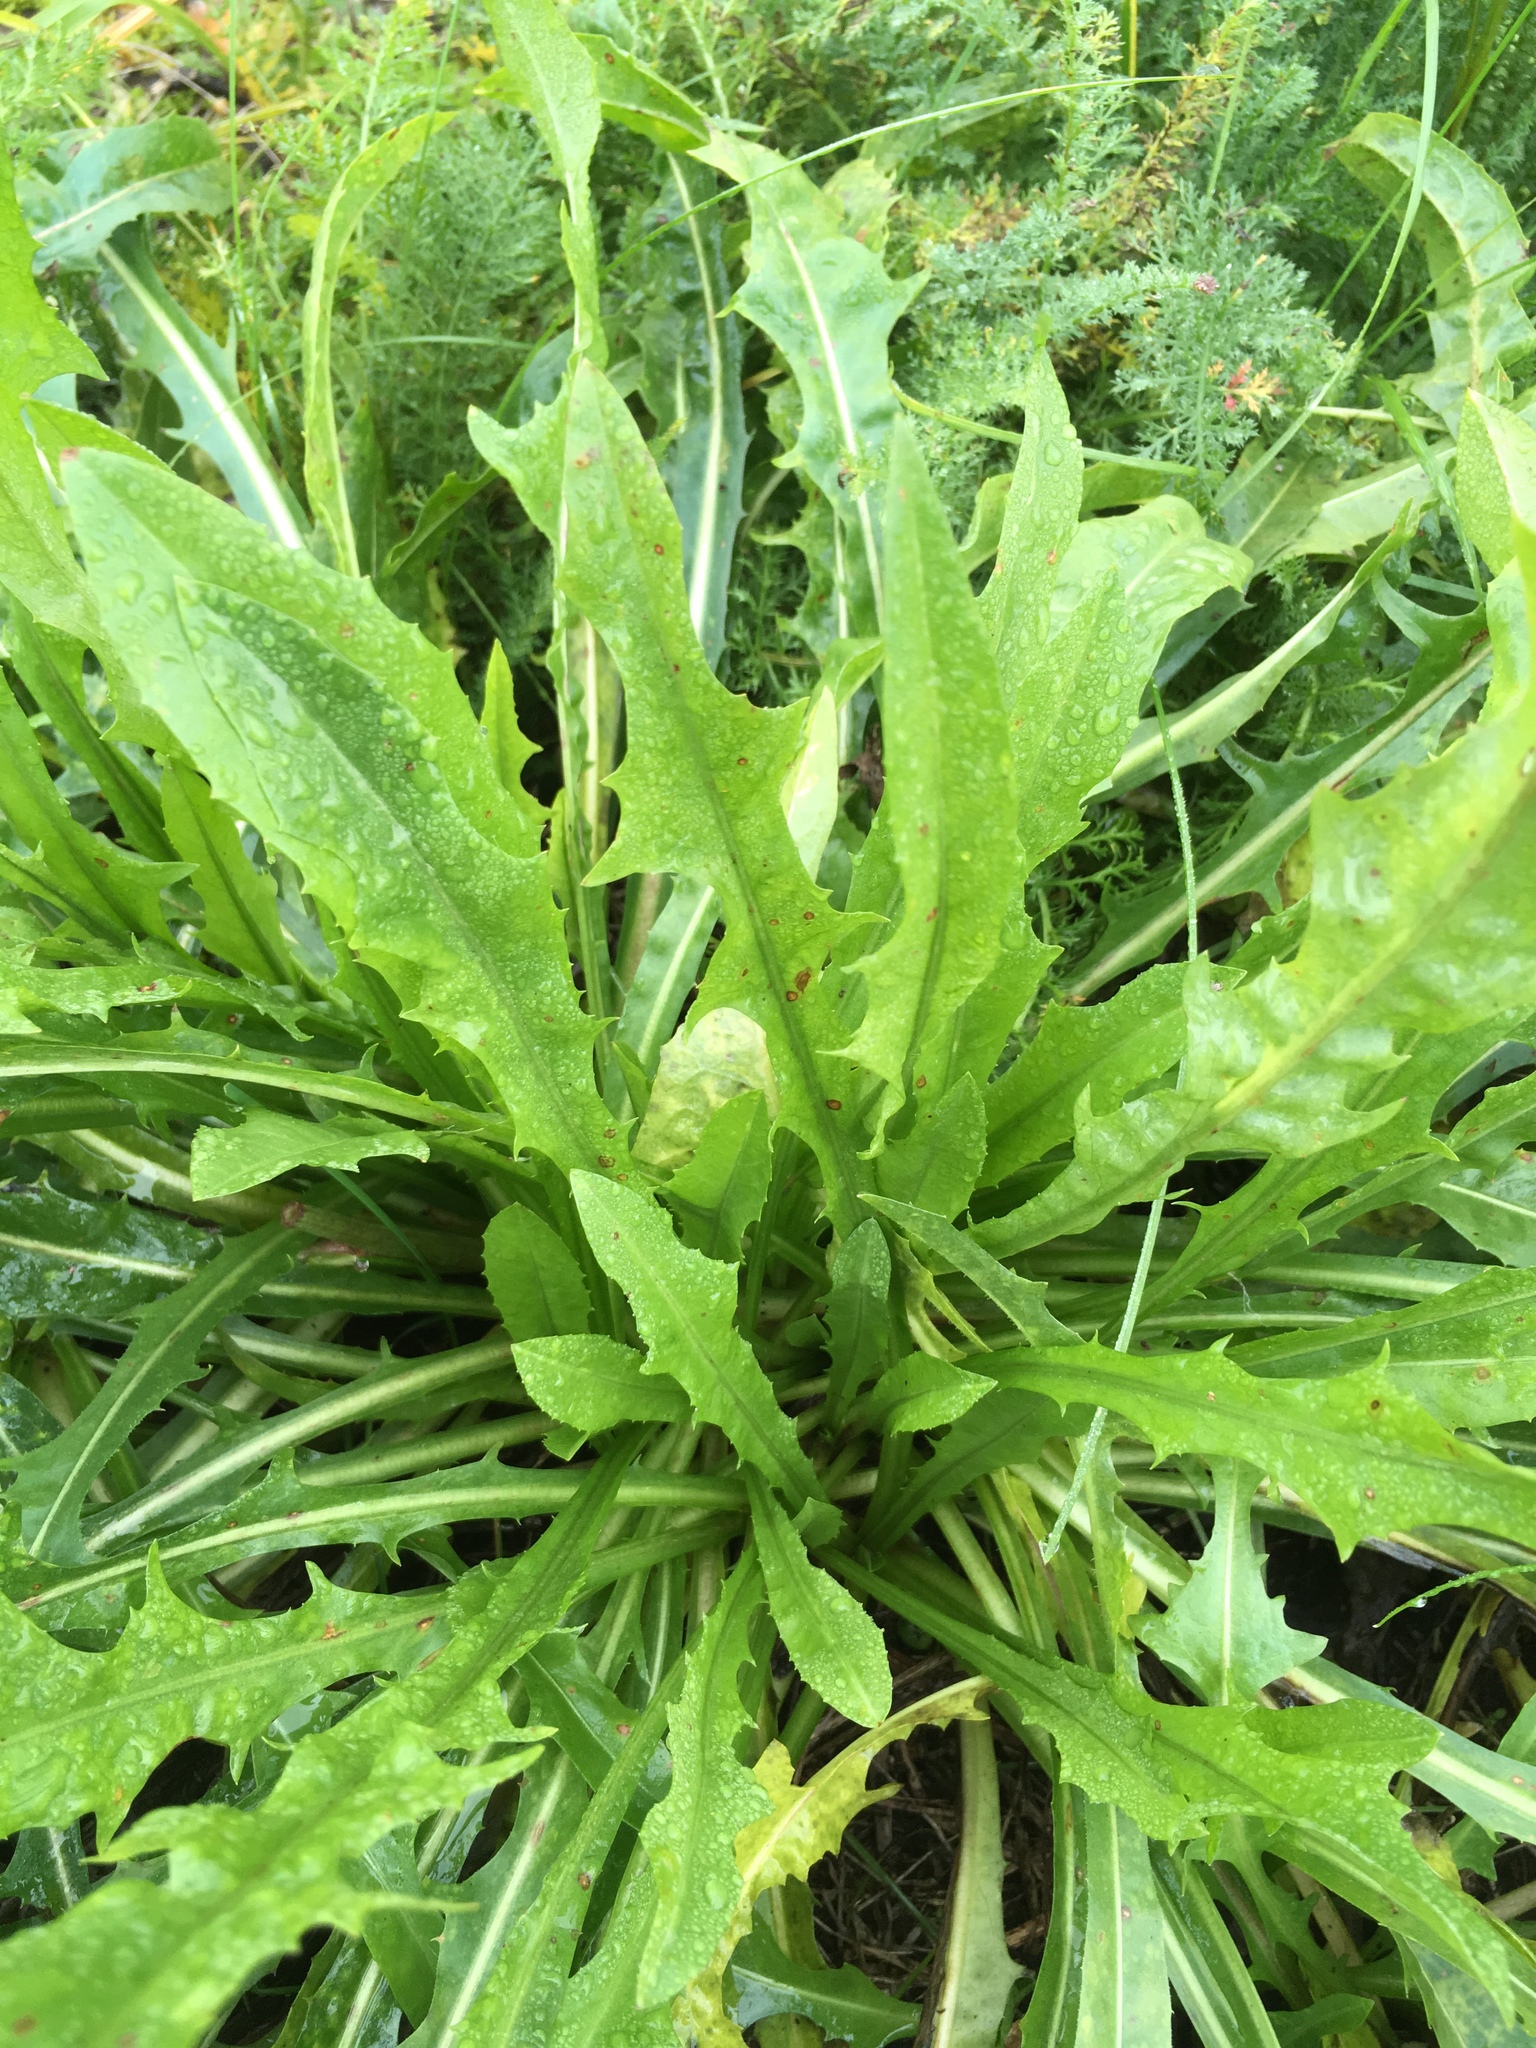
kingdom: Plantae
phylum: Tracheophyta
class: Magnoliopsida
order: Asterales
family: Asteraceae
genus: Scorzoneroides
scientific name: Scorzoneroides autumnalis
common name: Autumn hawkbit
